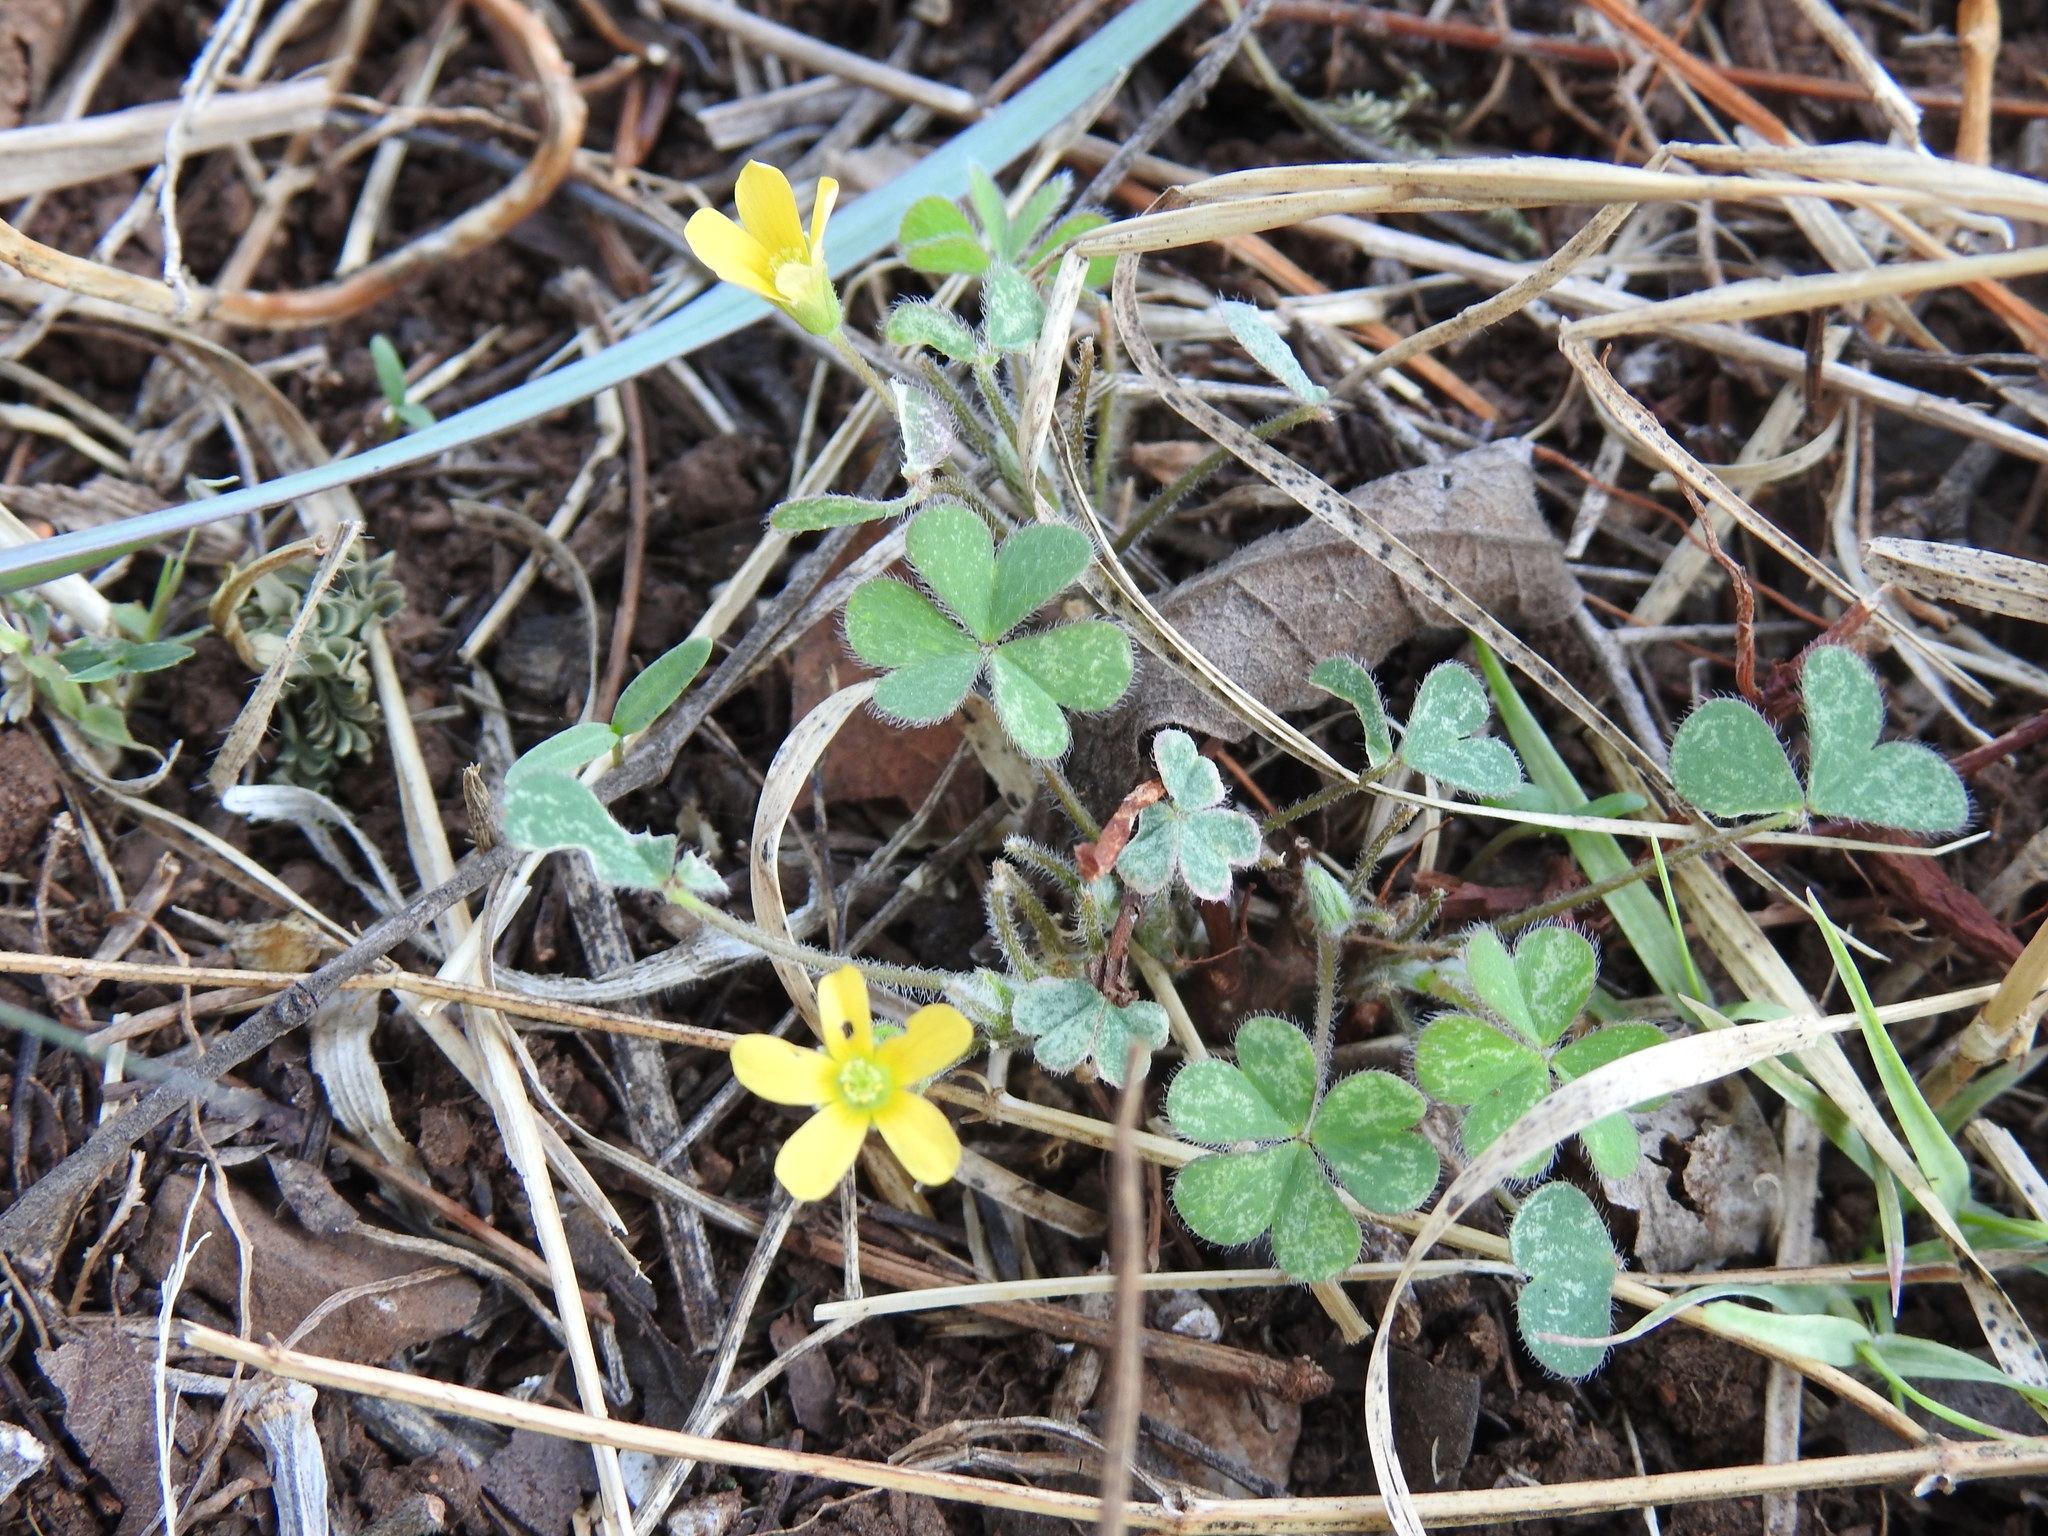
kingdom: Plantae
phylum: Tracheophyta
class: Magnoliopsida
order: Oxalidales
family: Oxalidaceae
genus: Oxalis
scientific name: Oxalis corniculata
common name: Procumbent yellow-sorrel
